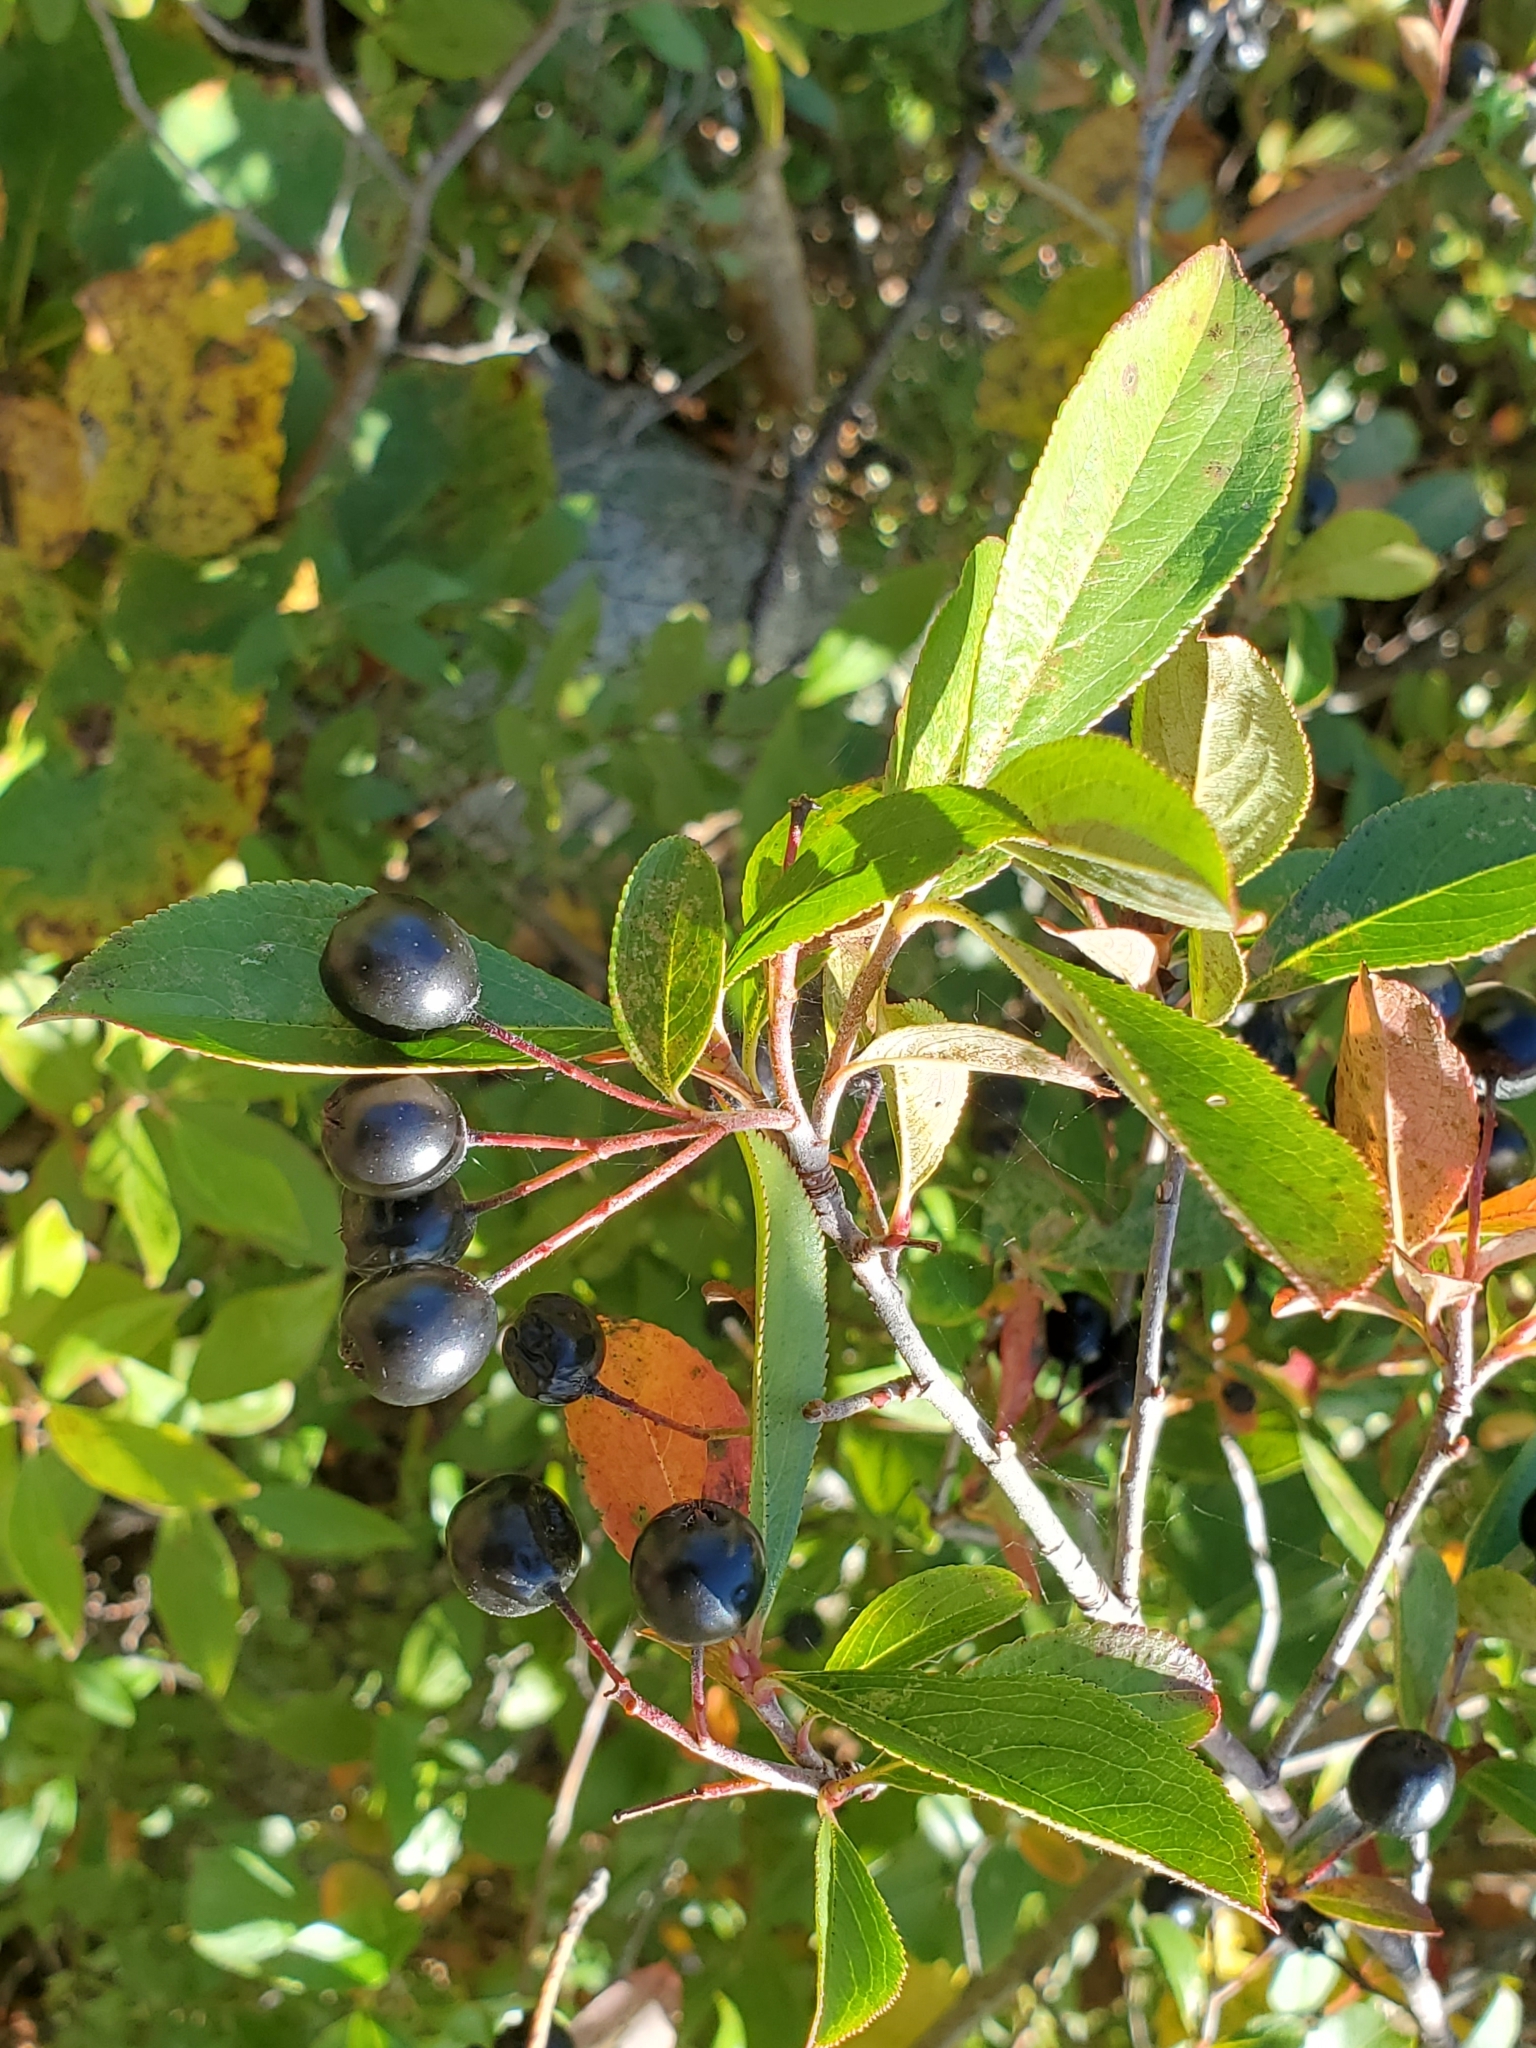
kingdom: Plantae
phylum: Tracheophyta
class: Magnoliopsida
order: Rosales
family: Rosaceae
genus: Aronia
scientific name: Aronia melanocarpa
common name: Black chokeberry
